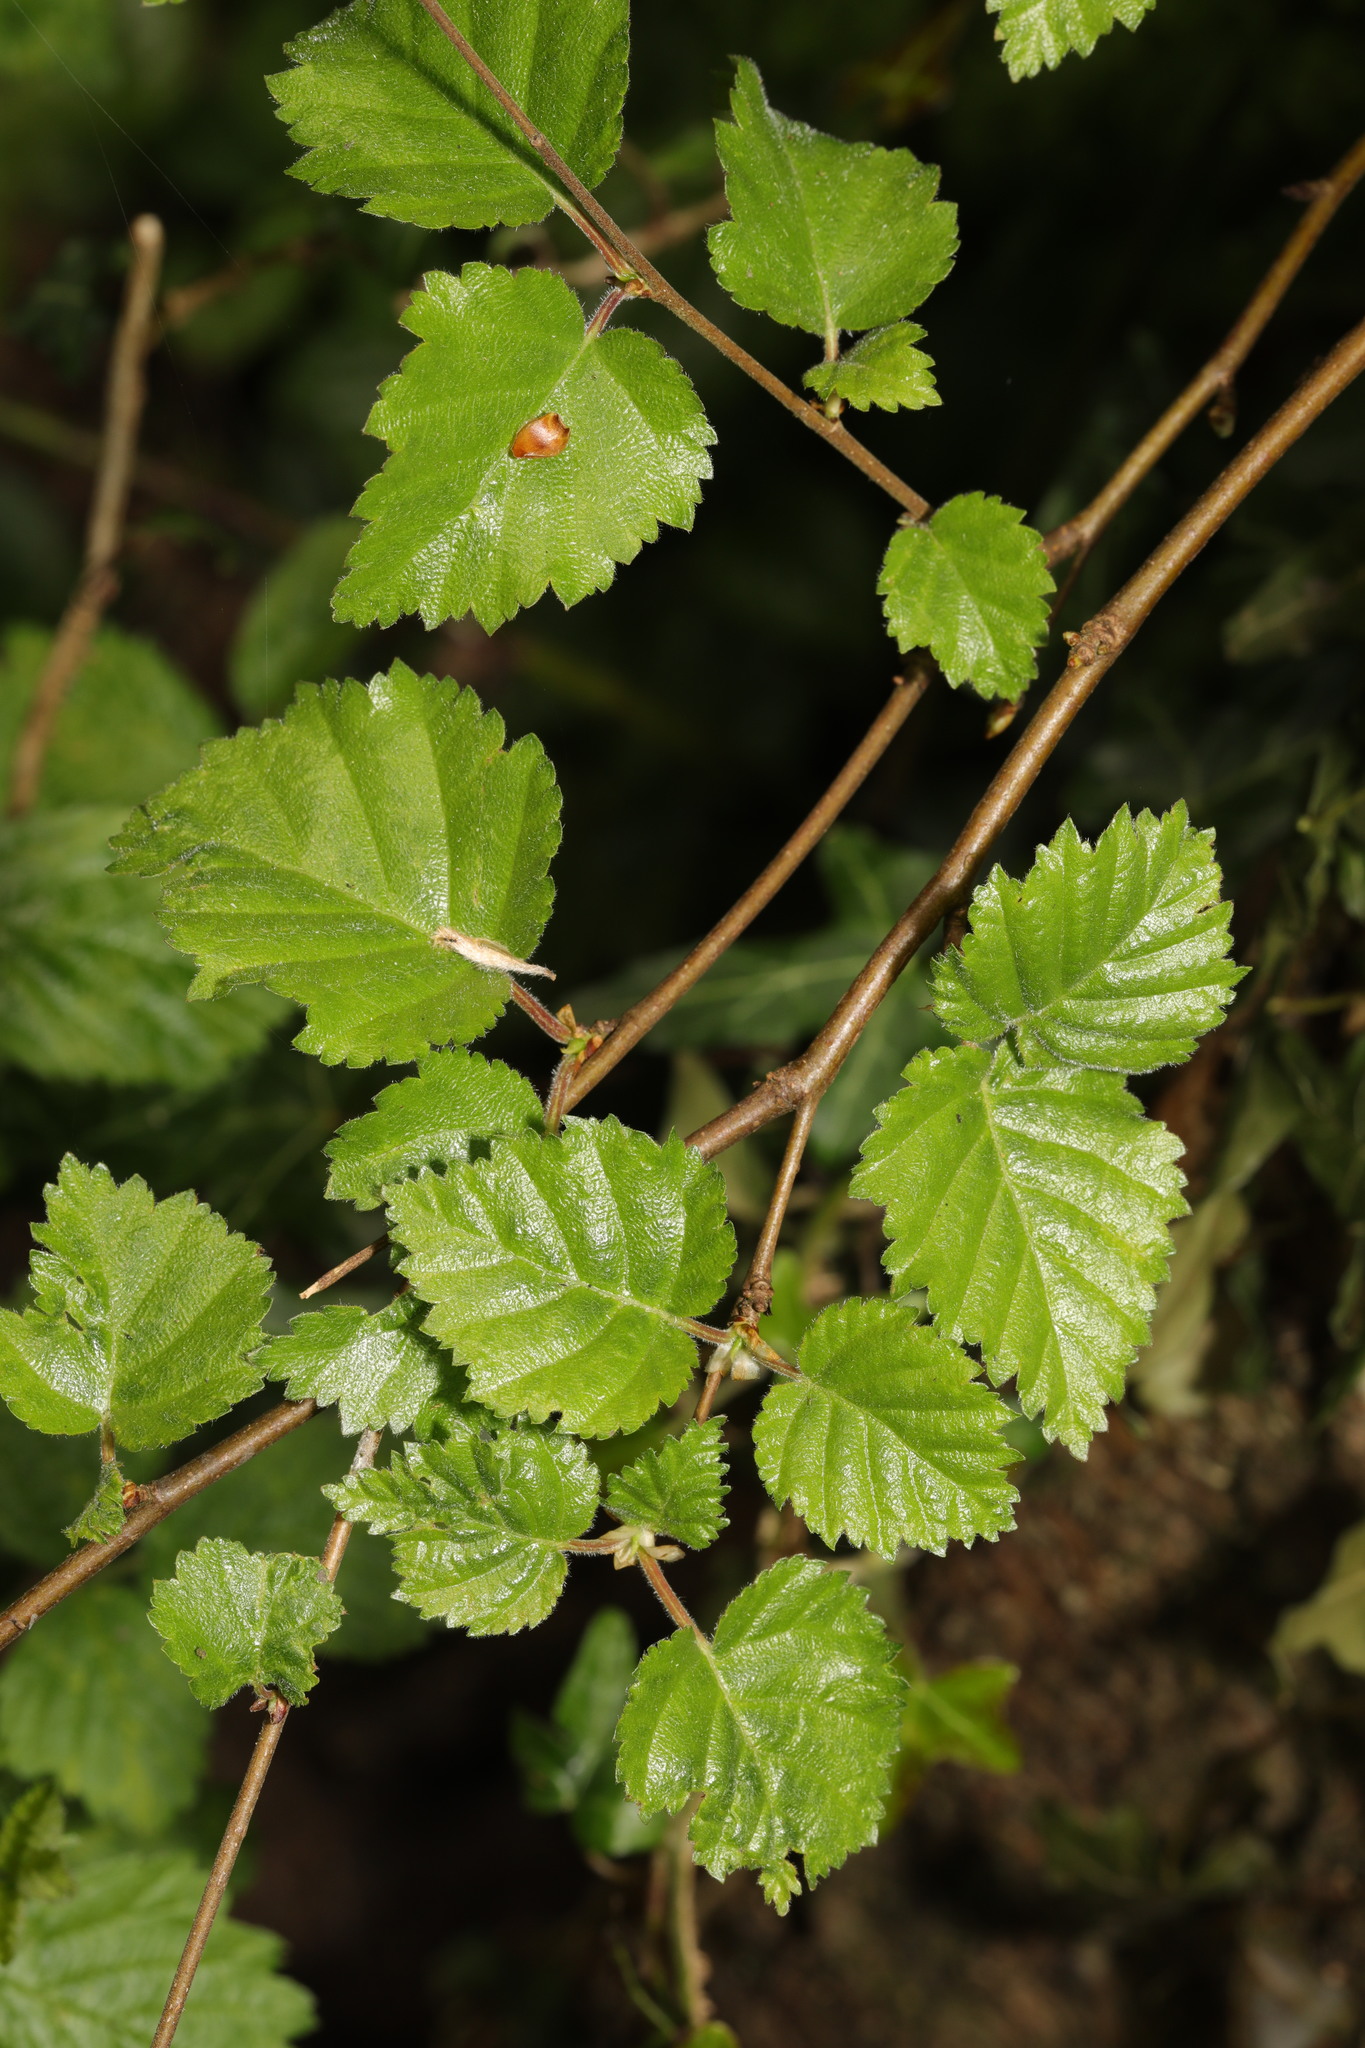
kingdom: Plantae
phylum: Tracheophyta
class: Magnoliopsida
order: Fagales
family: Betulaceae
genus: Betula
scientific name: Betula pubescens
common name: Downy birch
